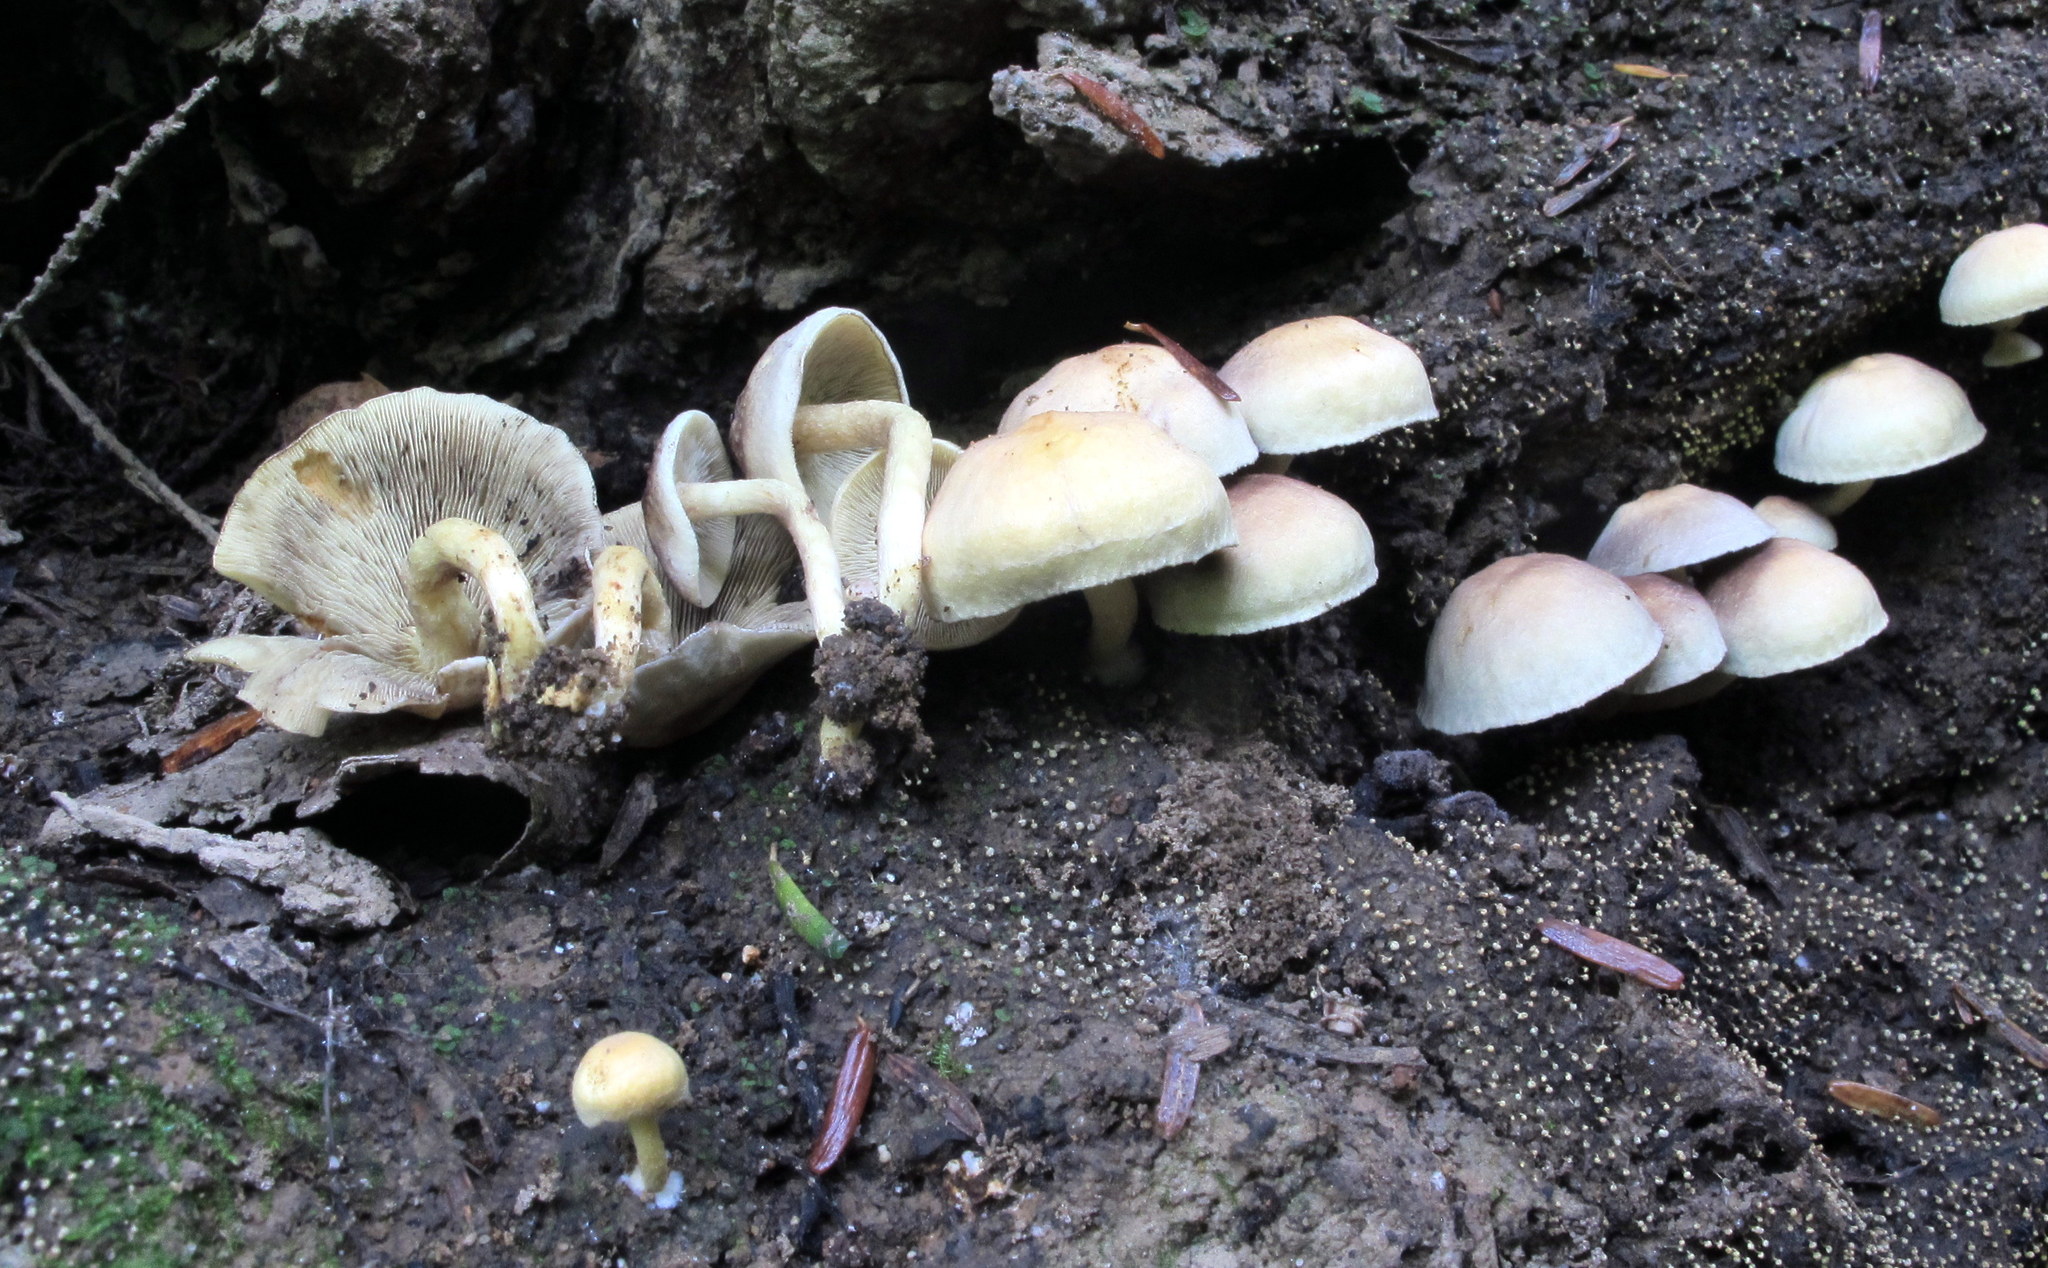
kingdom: Fungi
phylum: Basidiomycota
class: Agaricomycetes
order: Agaricales
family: Strophariaceae
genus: Hypholoma
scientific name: Hypholoma fasciculare
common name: Sulphur tuft
